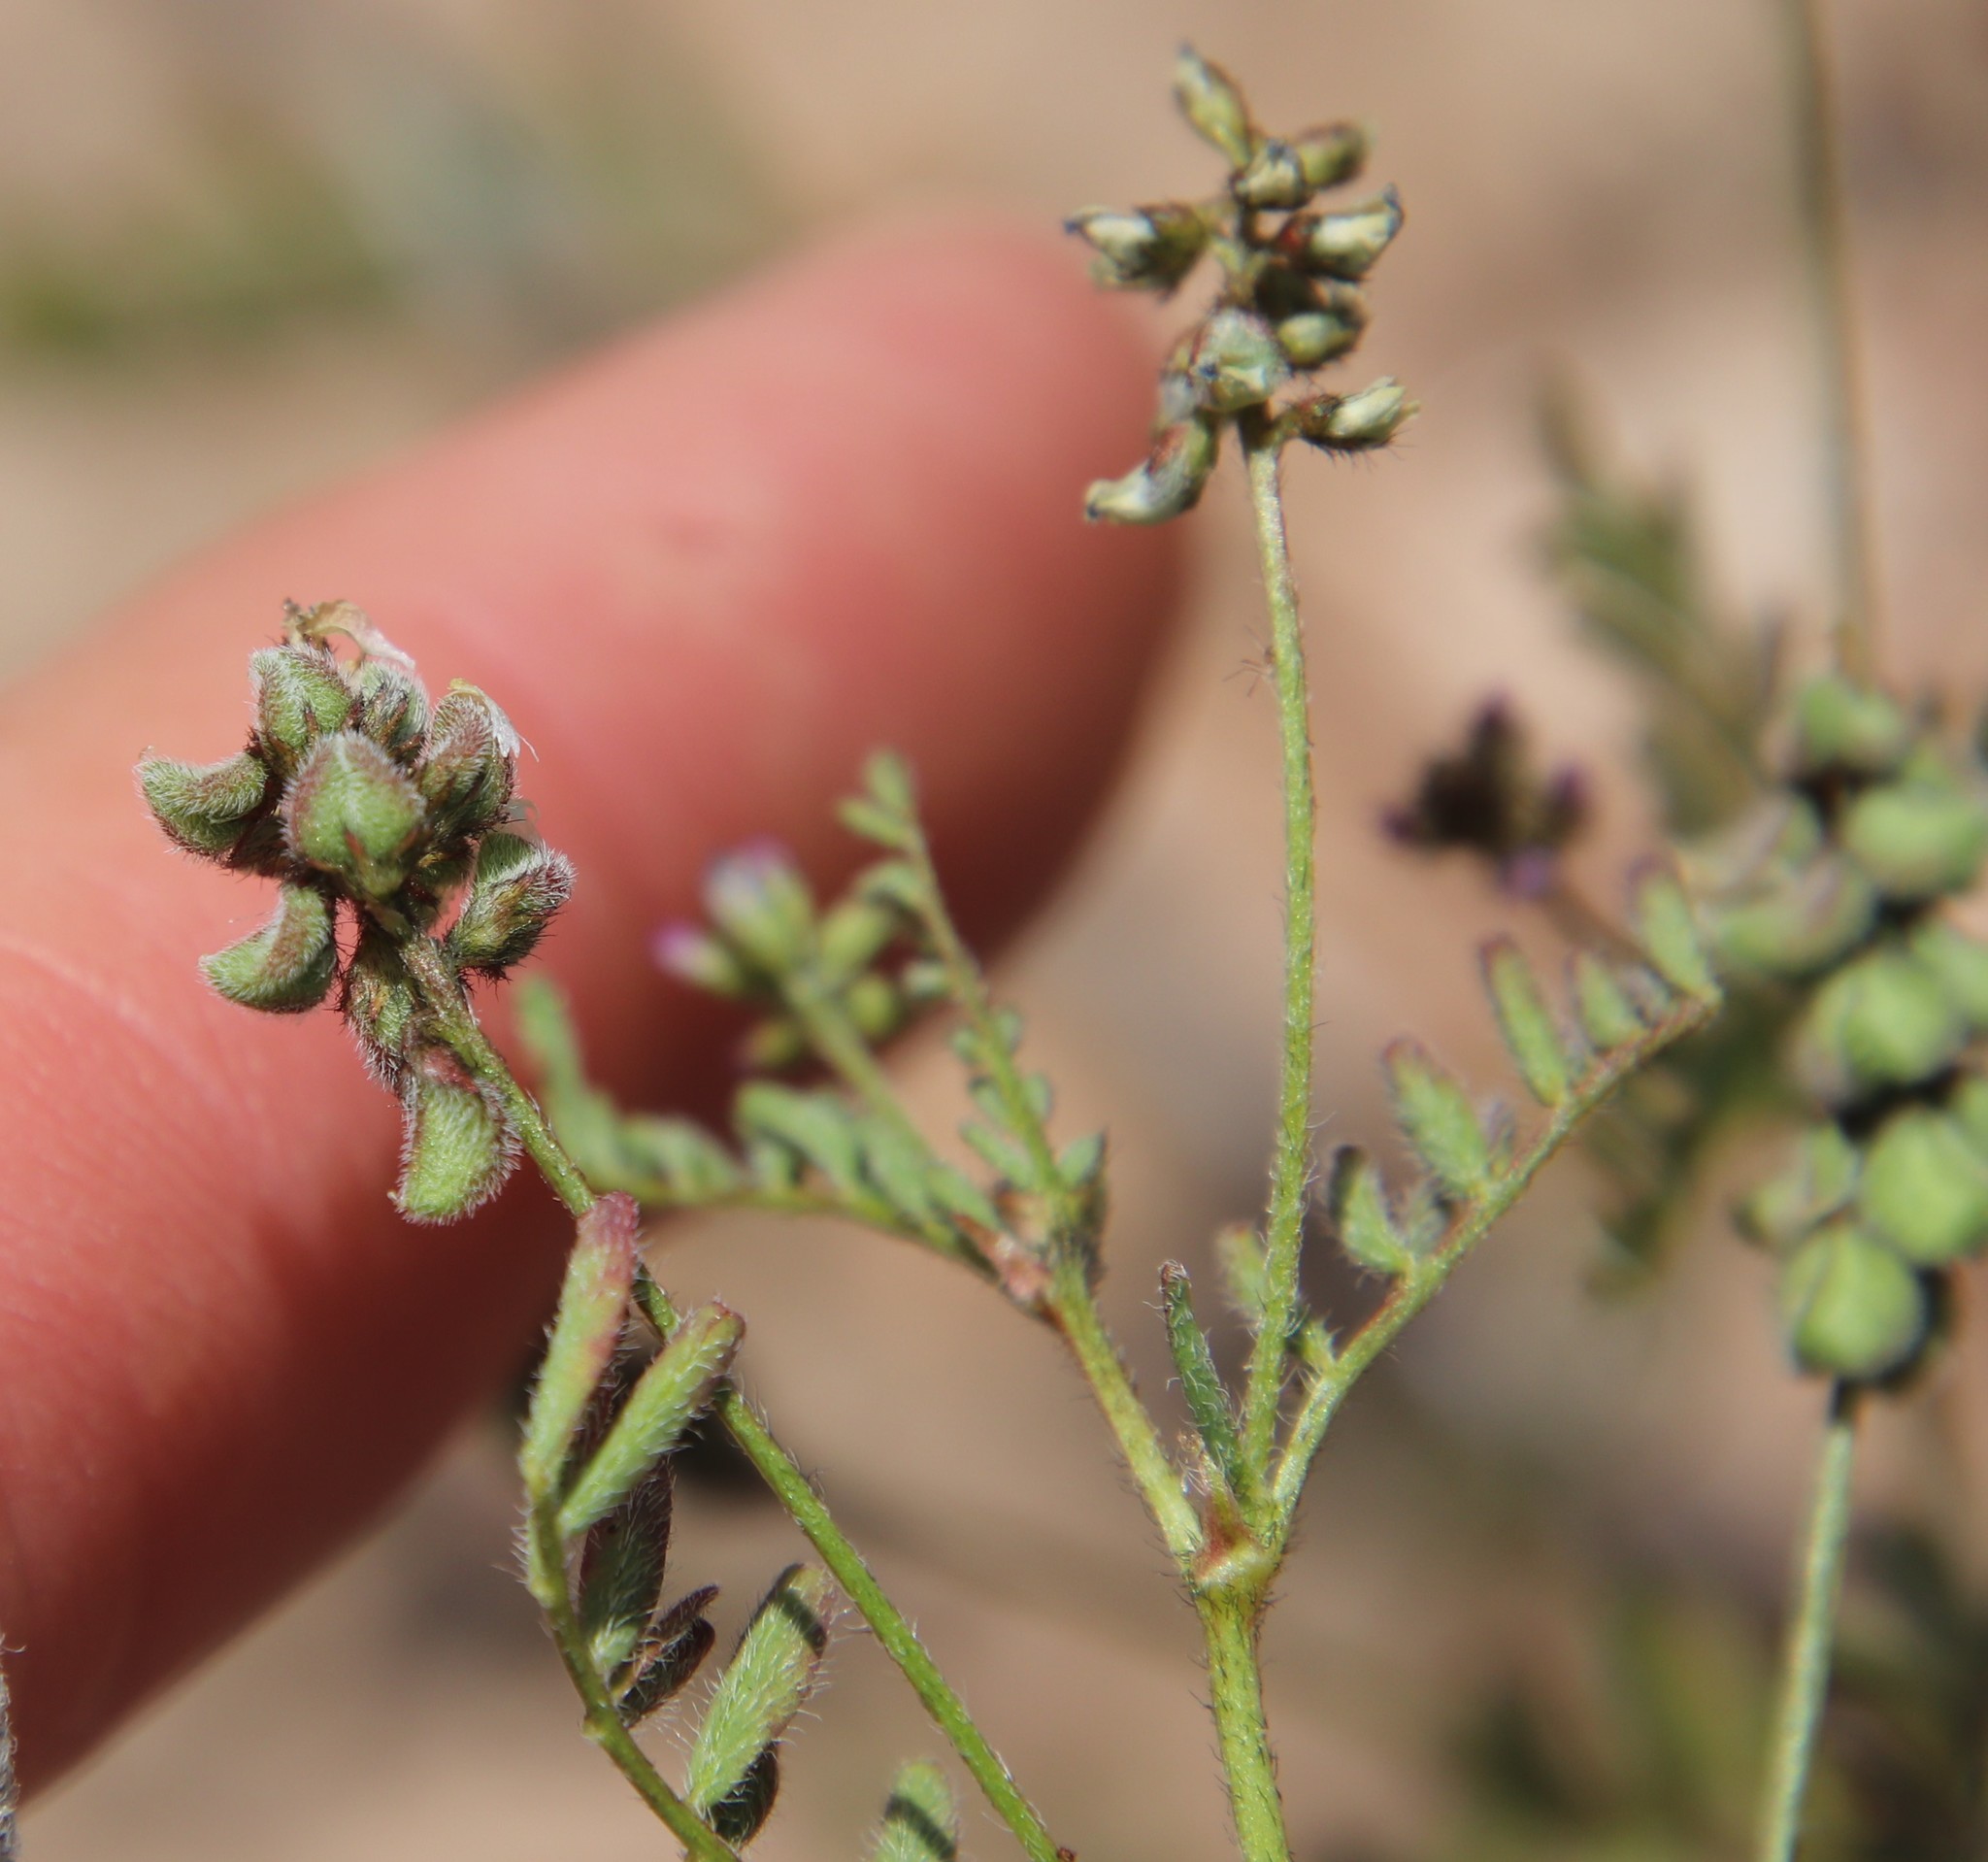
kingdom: Plantae
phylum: Tracheophyta
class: Magnoliopsida
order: Fabales
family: Fabaceae
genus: Astragalus
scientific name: Astragalus gambelianus
